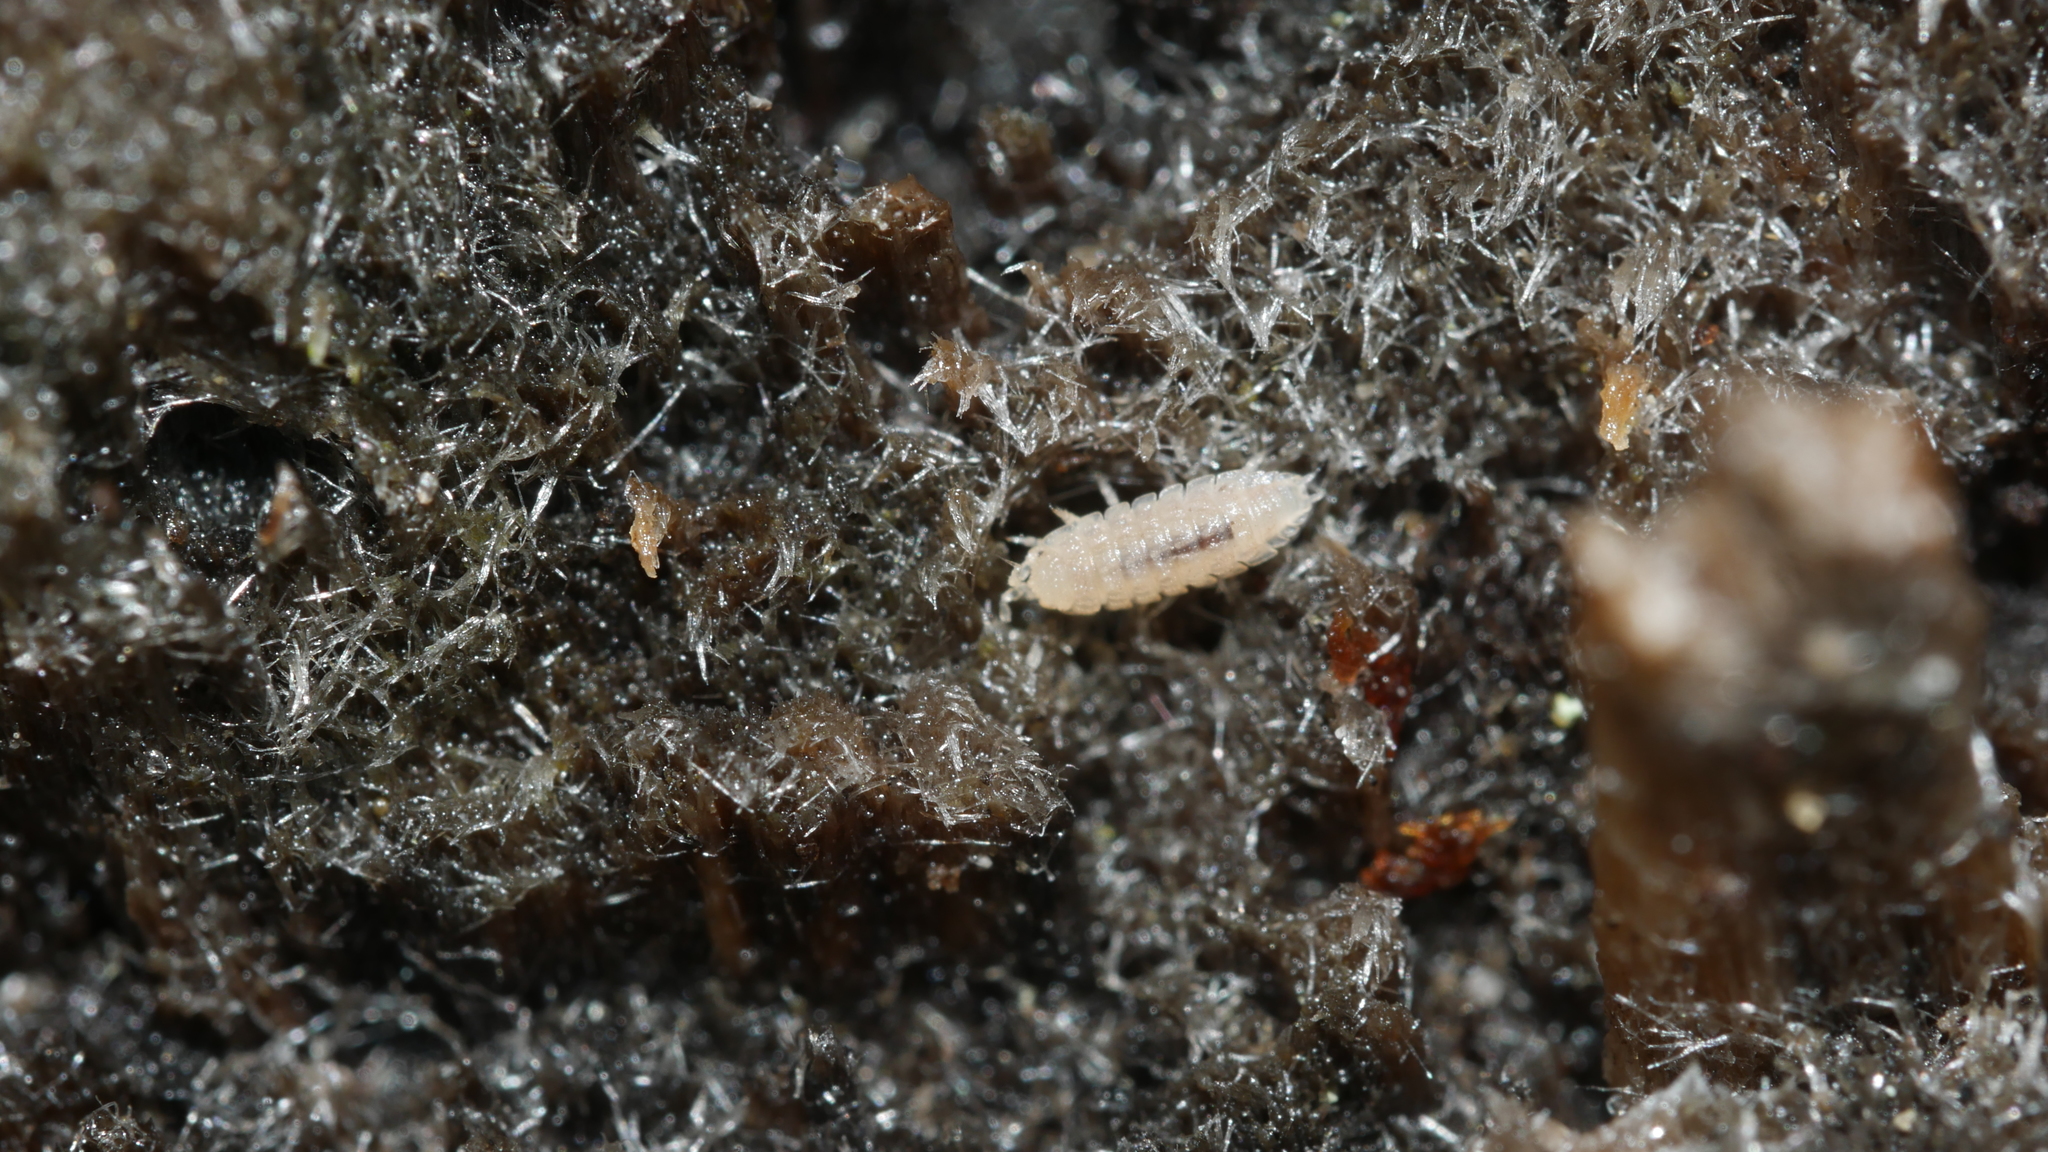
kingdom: Animalia
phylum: Arthropoda
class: Malacostraca
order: Isopoda
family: Trichoniscidae
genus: Haplophthalmus
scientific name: Haplophthalmus danicus
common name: Pillbug
